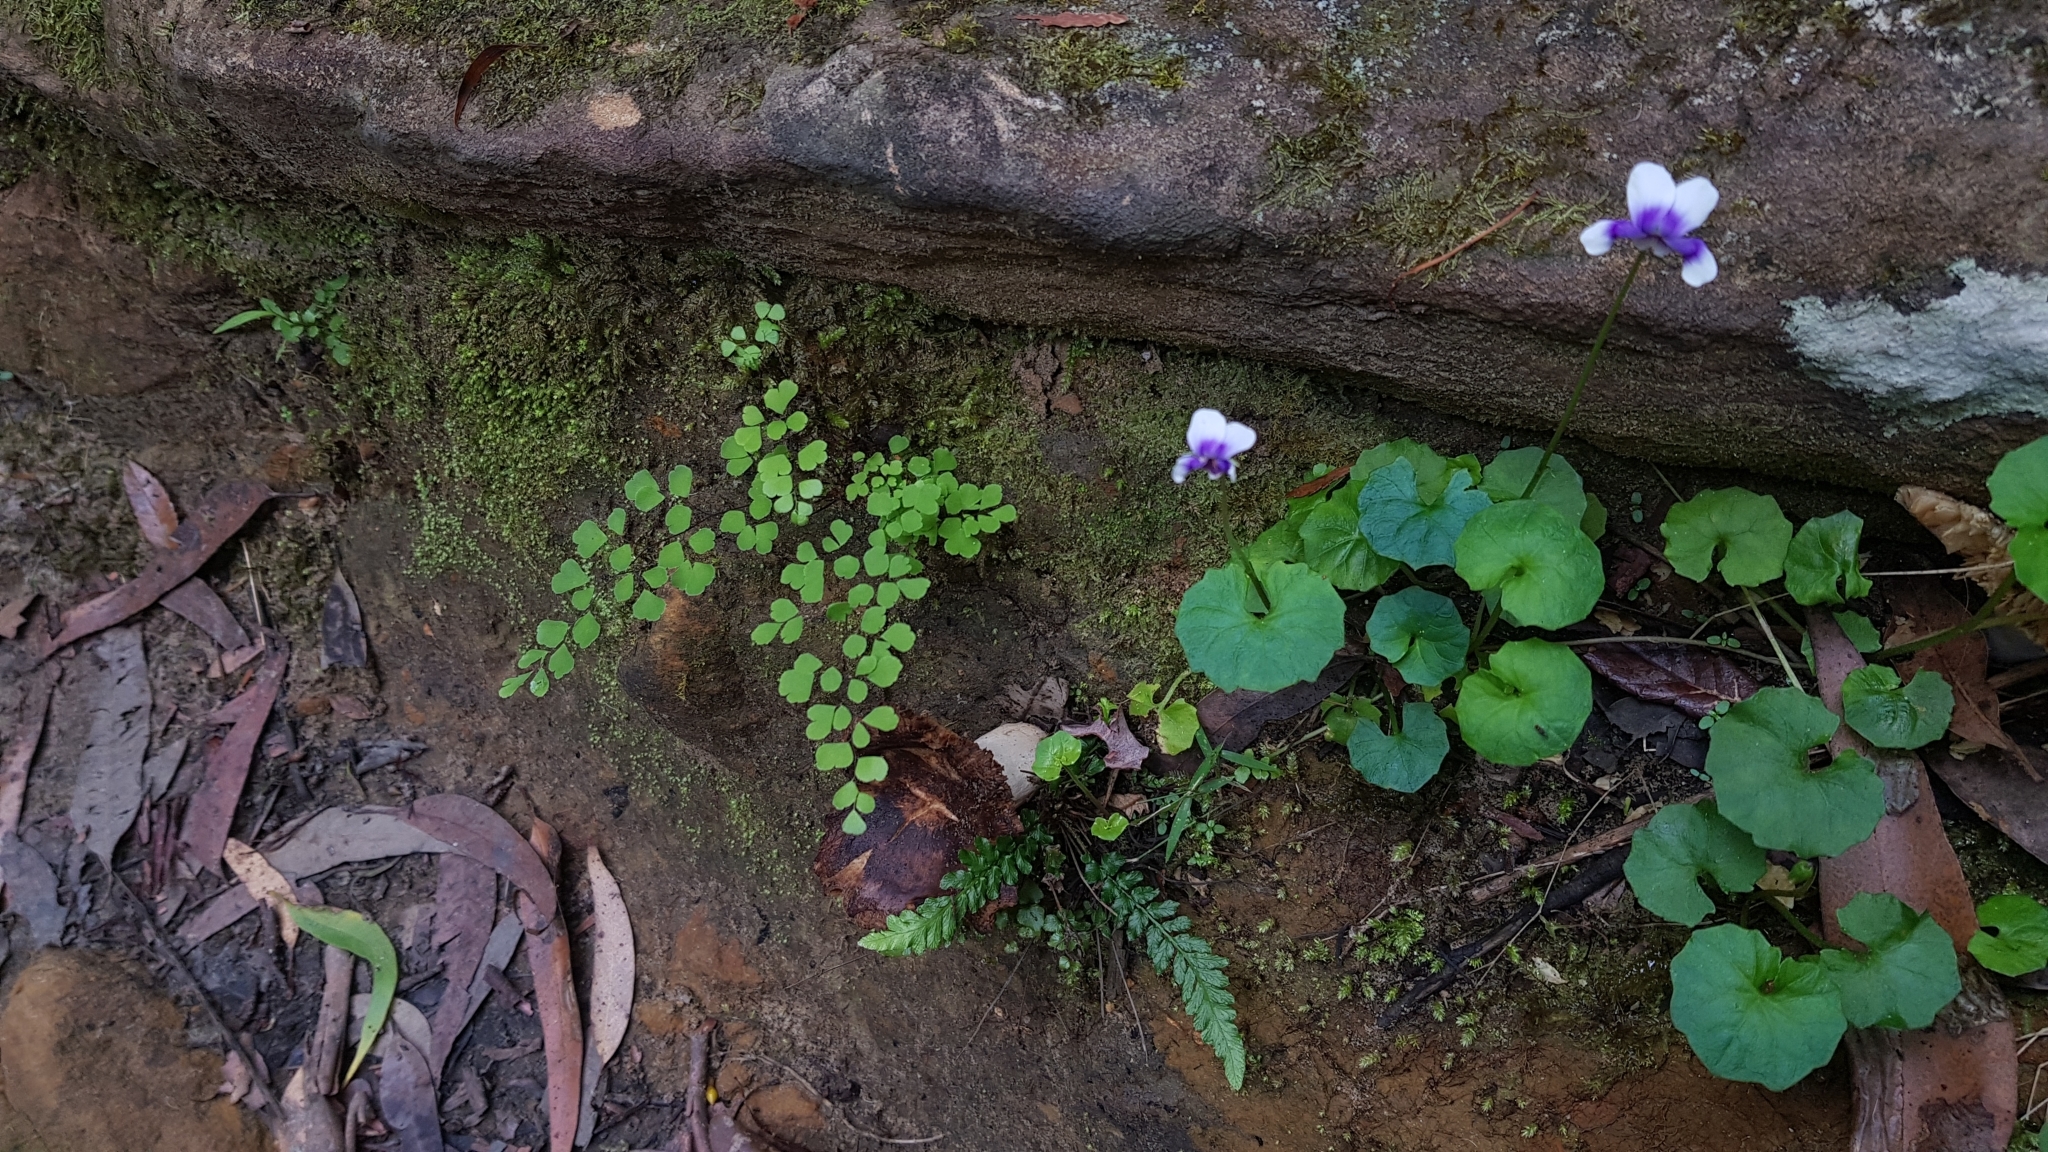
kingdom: Plantae
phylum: Tracheophyta
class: Magnoliopsida
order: Malpighiales
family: Violaceae
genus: Viola
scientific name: Viola banksii
